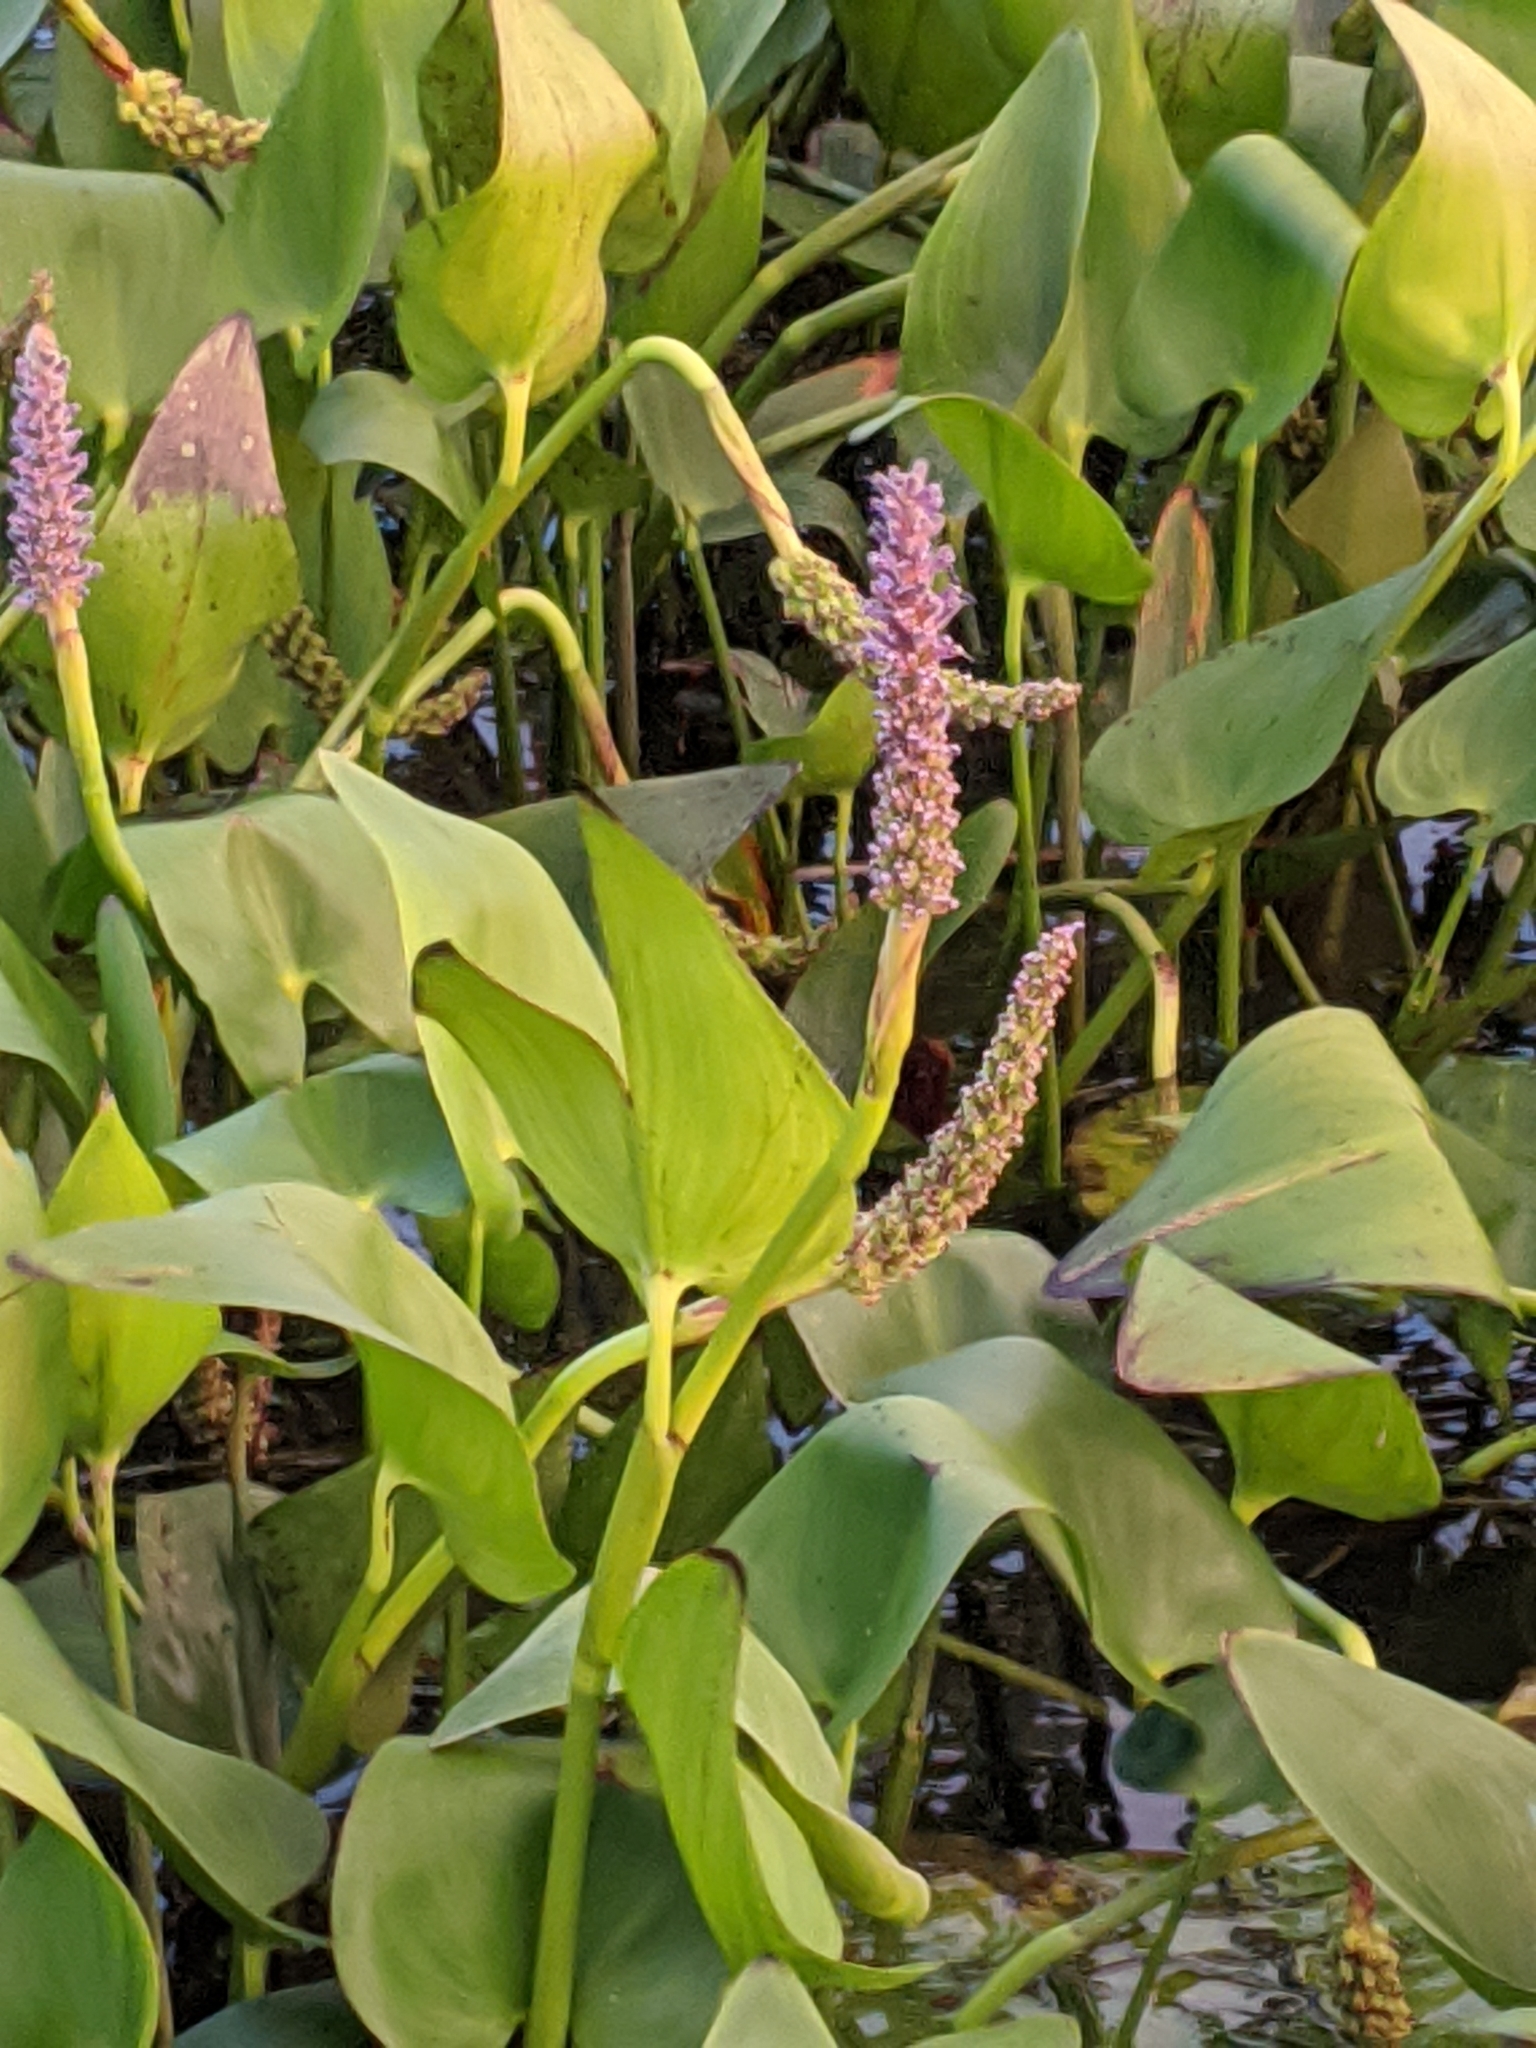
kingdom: Plantae
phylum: Tracheophyta
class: Liliopsida
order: Commelinales
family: Pontederiaceae
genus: Pontederia
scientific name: Pontederia cordata
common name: Pickerelweed
